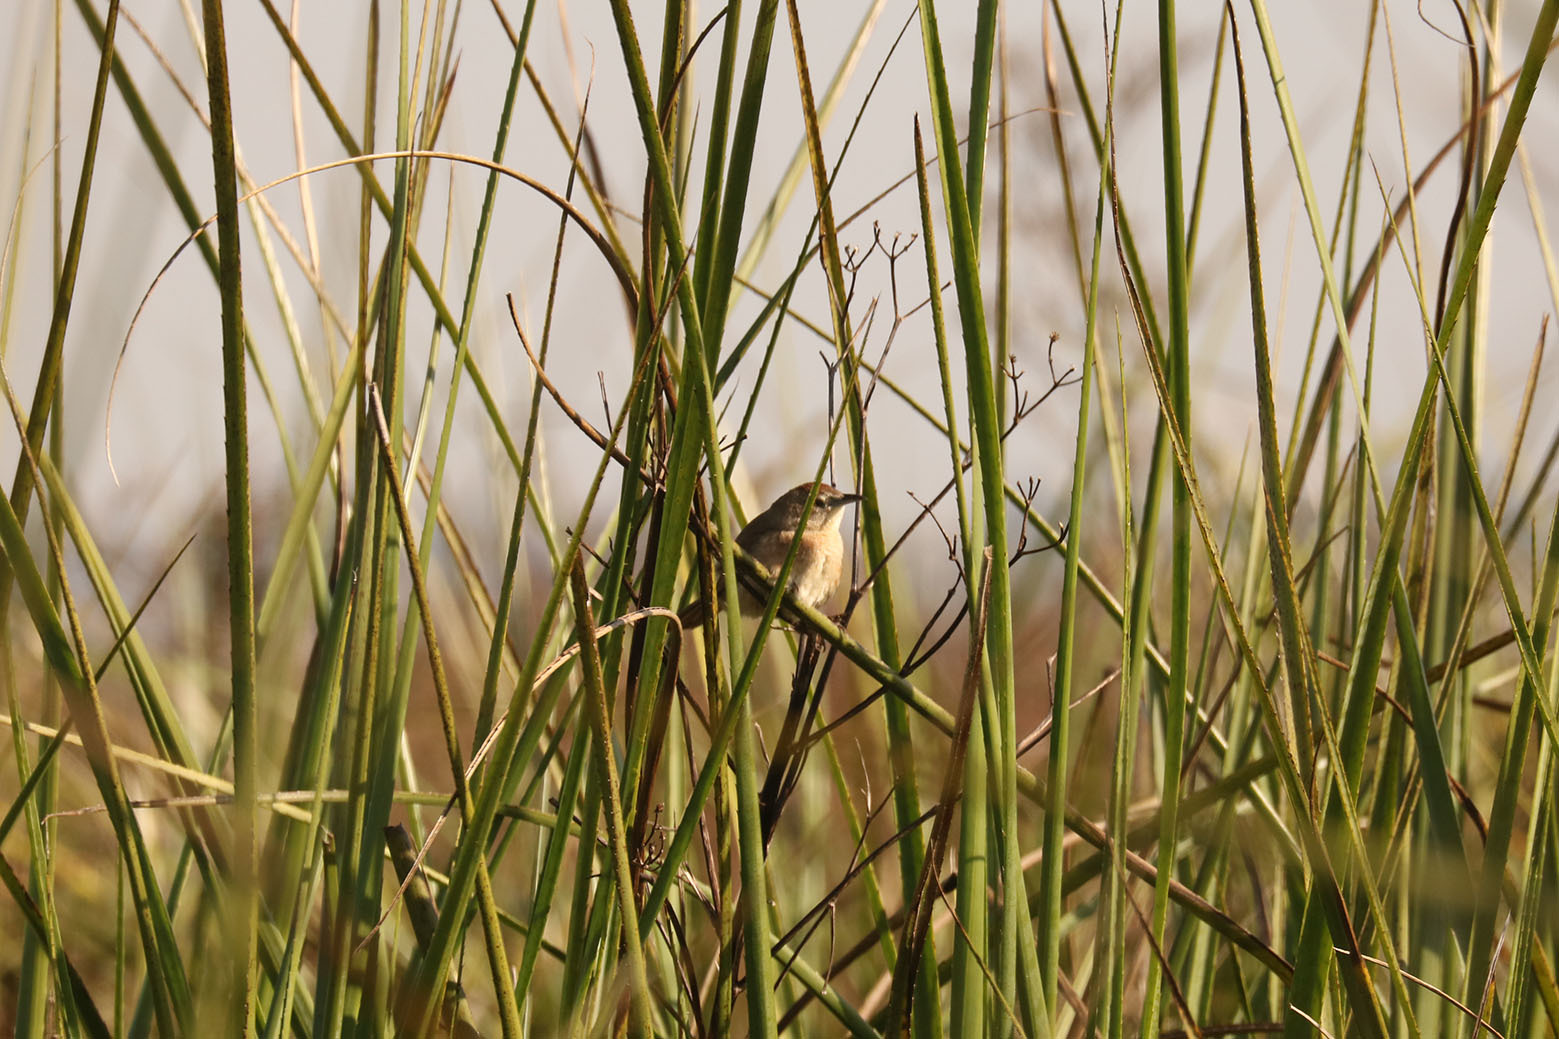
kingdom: Animalia
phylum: Chordata
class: Aves
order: Passeriformes
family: Furnariidae
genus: Phacellodomus
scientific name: Phacellodomus striaticollis
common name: Freckle-breasted thornbird
